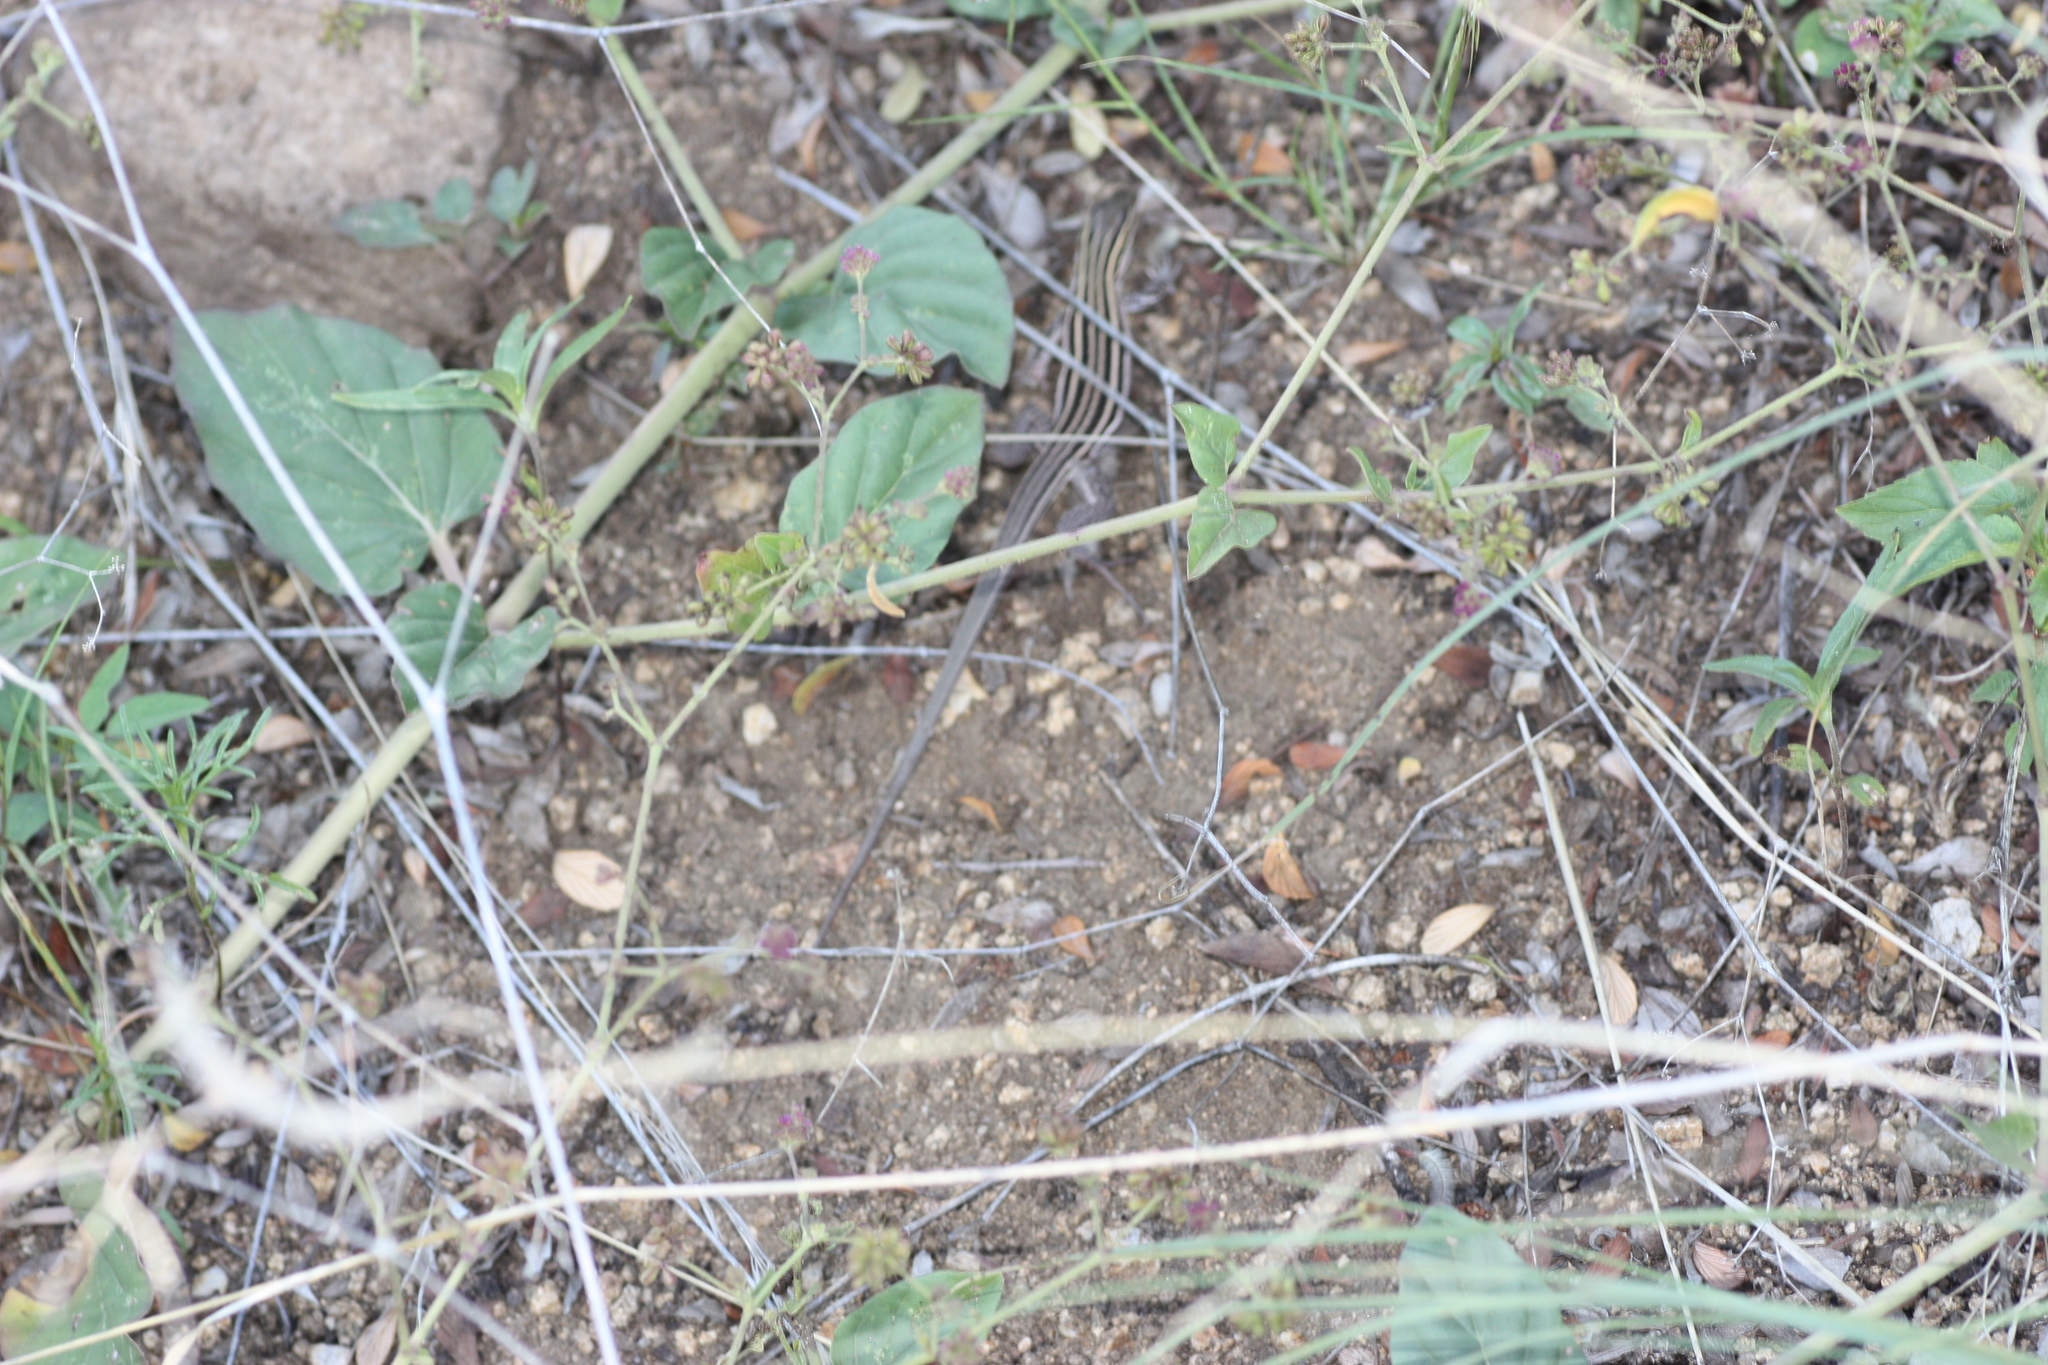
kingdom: Animalia
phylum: Chordata
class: Squamata
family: Teiidae
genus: Aspidoscelis
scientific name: Aspidoscelis exsanguis
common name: Chihuahuan spotted whiptail
